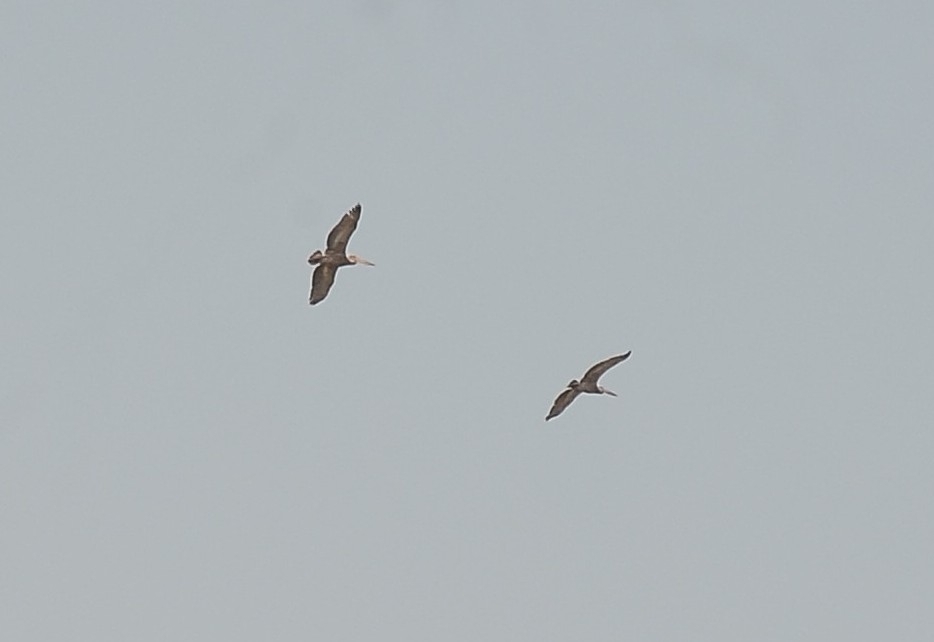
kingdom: Animalia
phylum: Chordata
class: Aves
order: Pelecaniformes
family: Pelecanidae
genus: Pelecanus
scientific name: Pelecanus philippensis
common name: Spot-billed pelican
